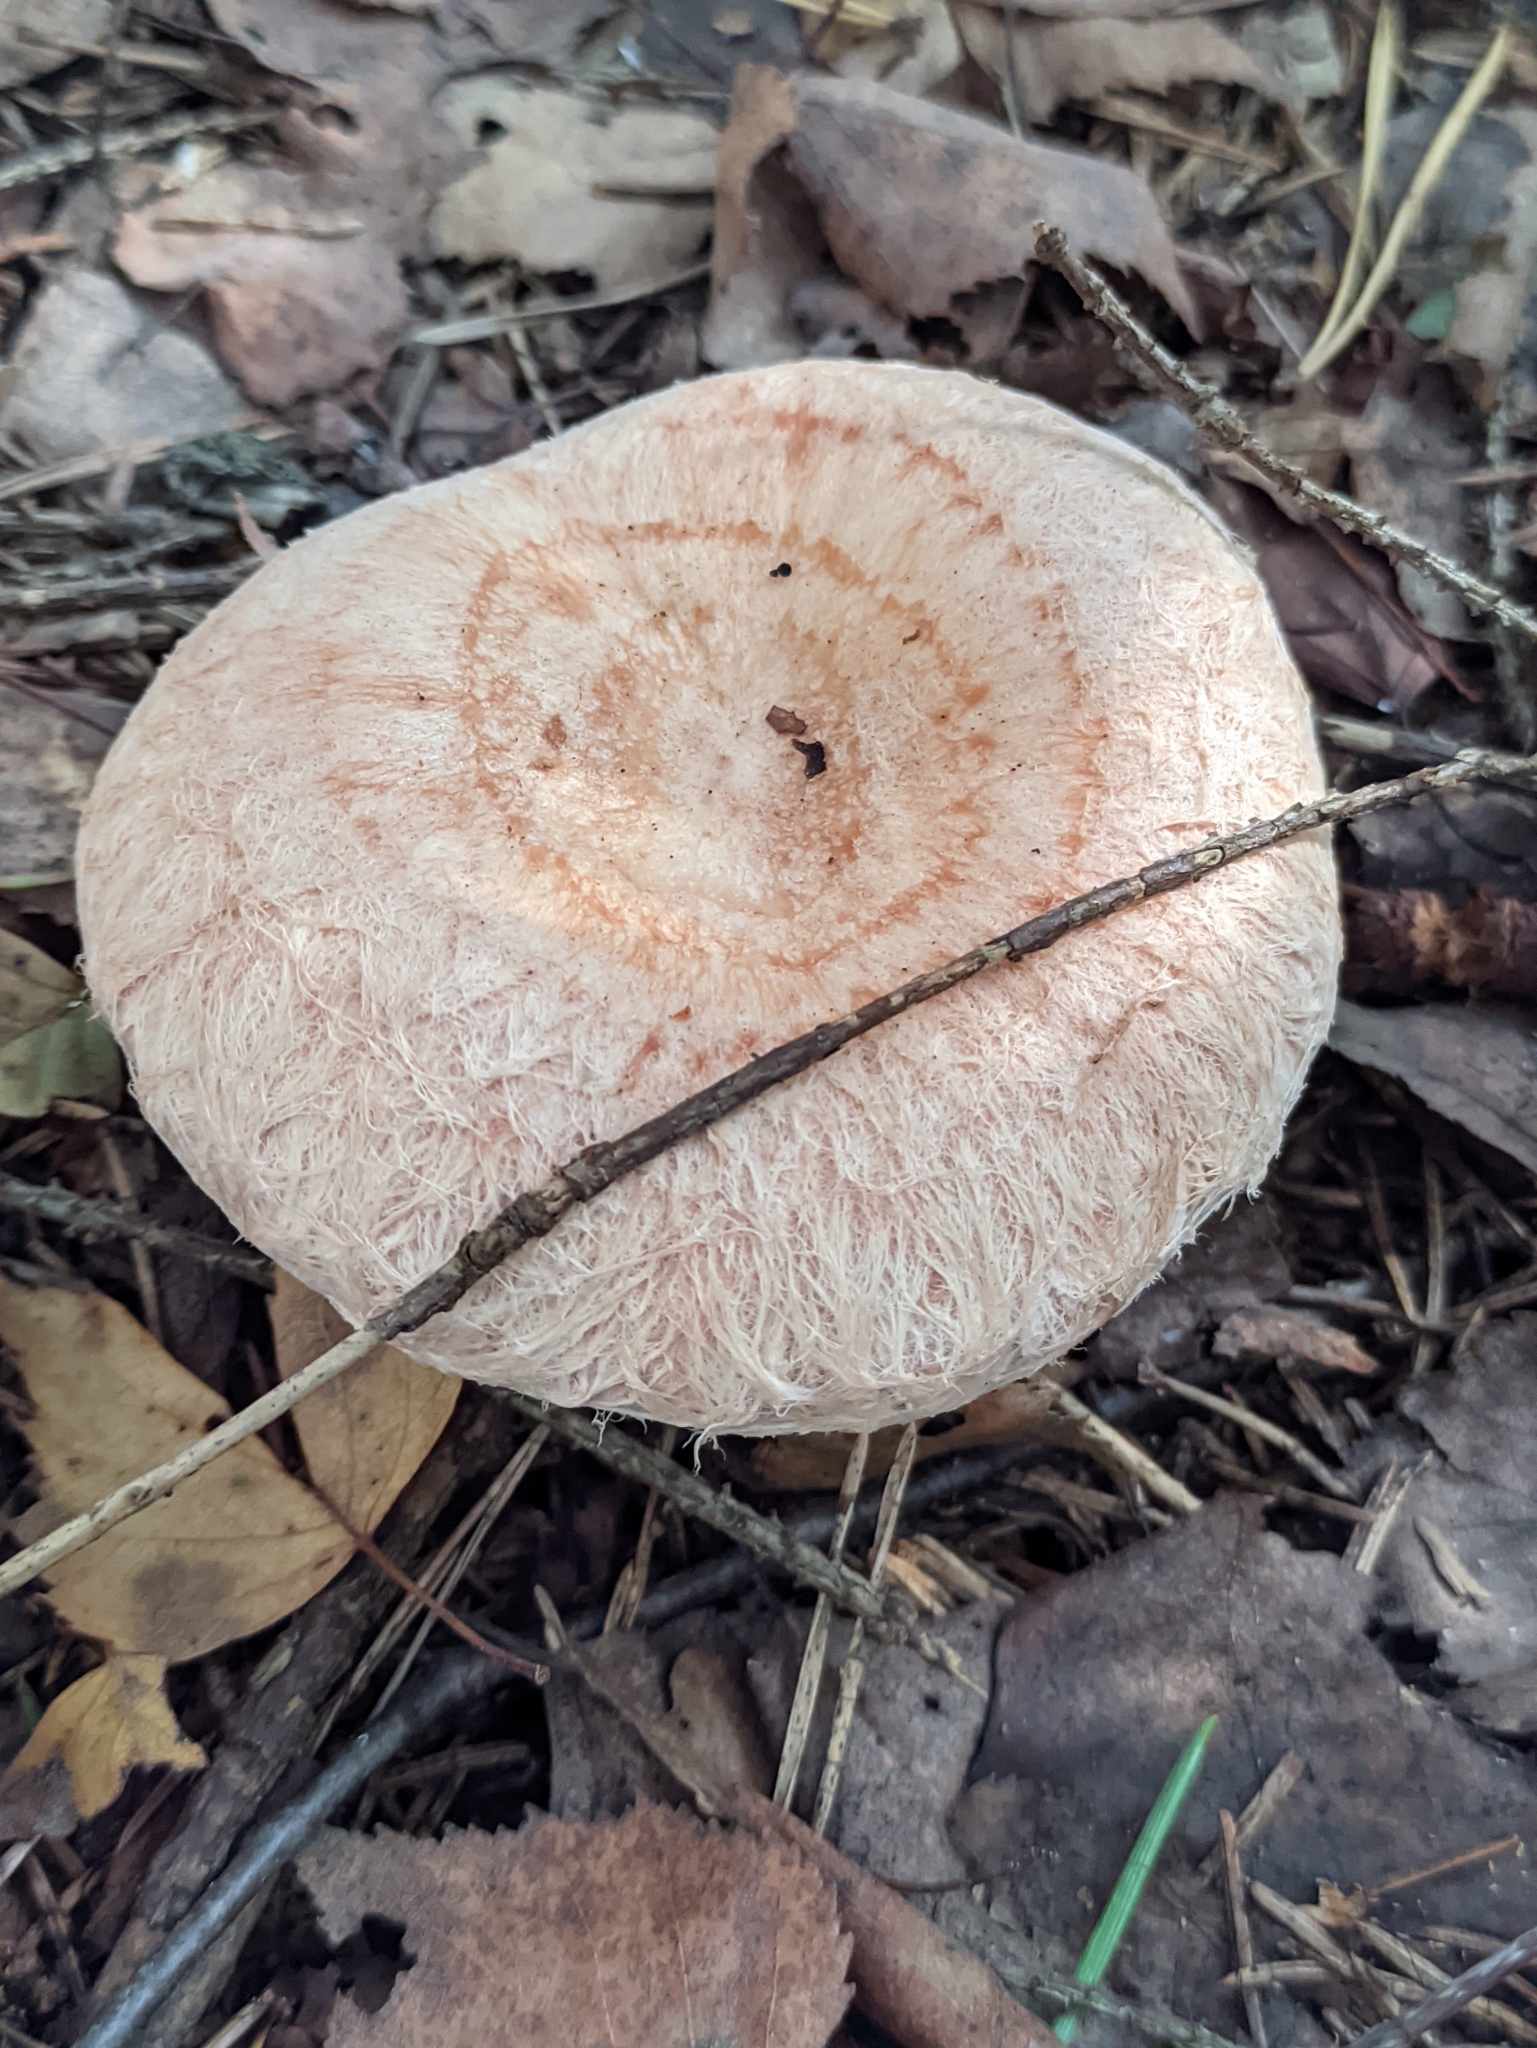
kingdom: Fungi
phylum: Basidiomycota
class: Agaricomycetes
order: Russulales
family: Russulaceae
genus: Lactarius
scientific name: Lactarius torminosus
